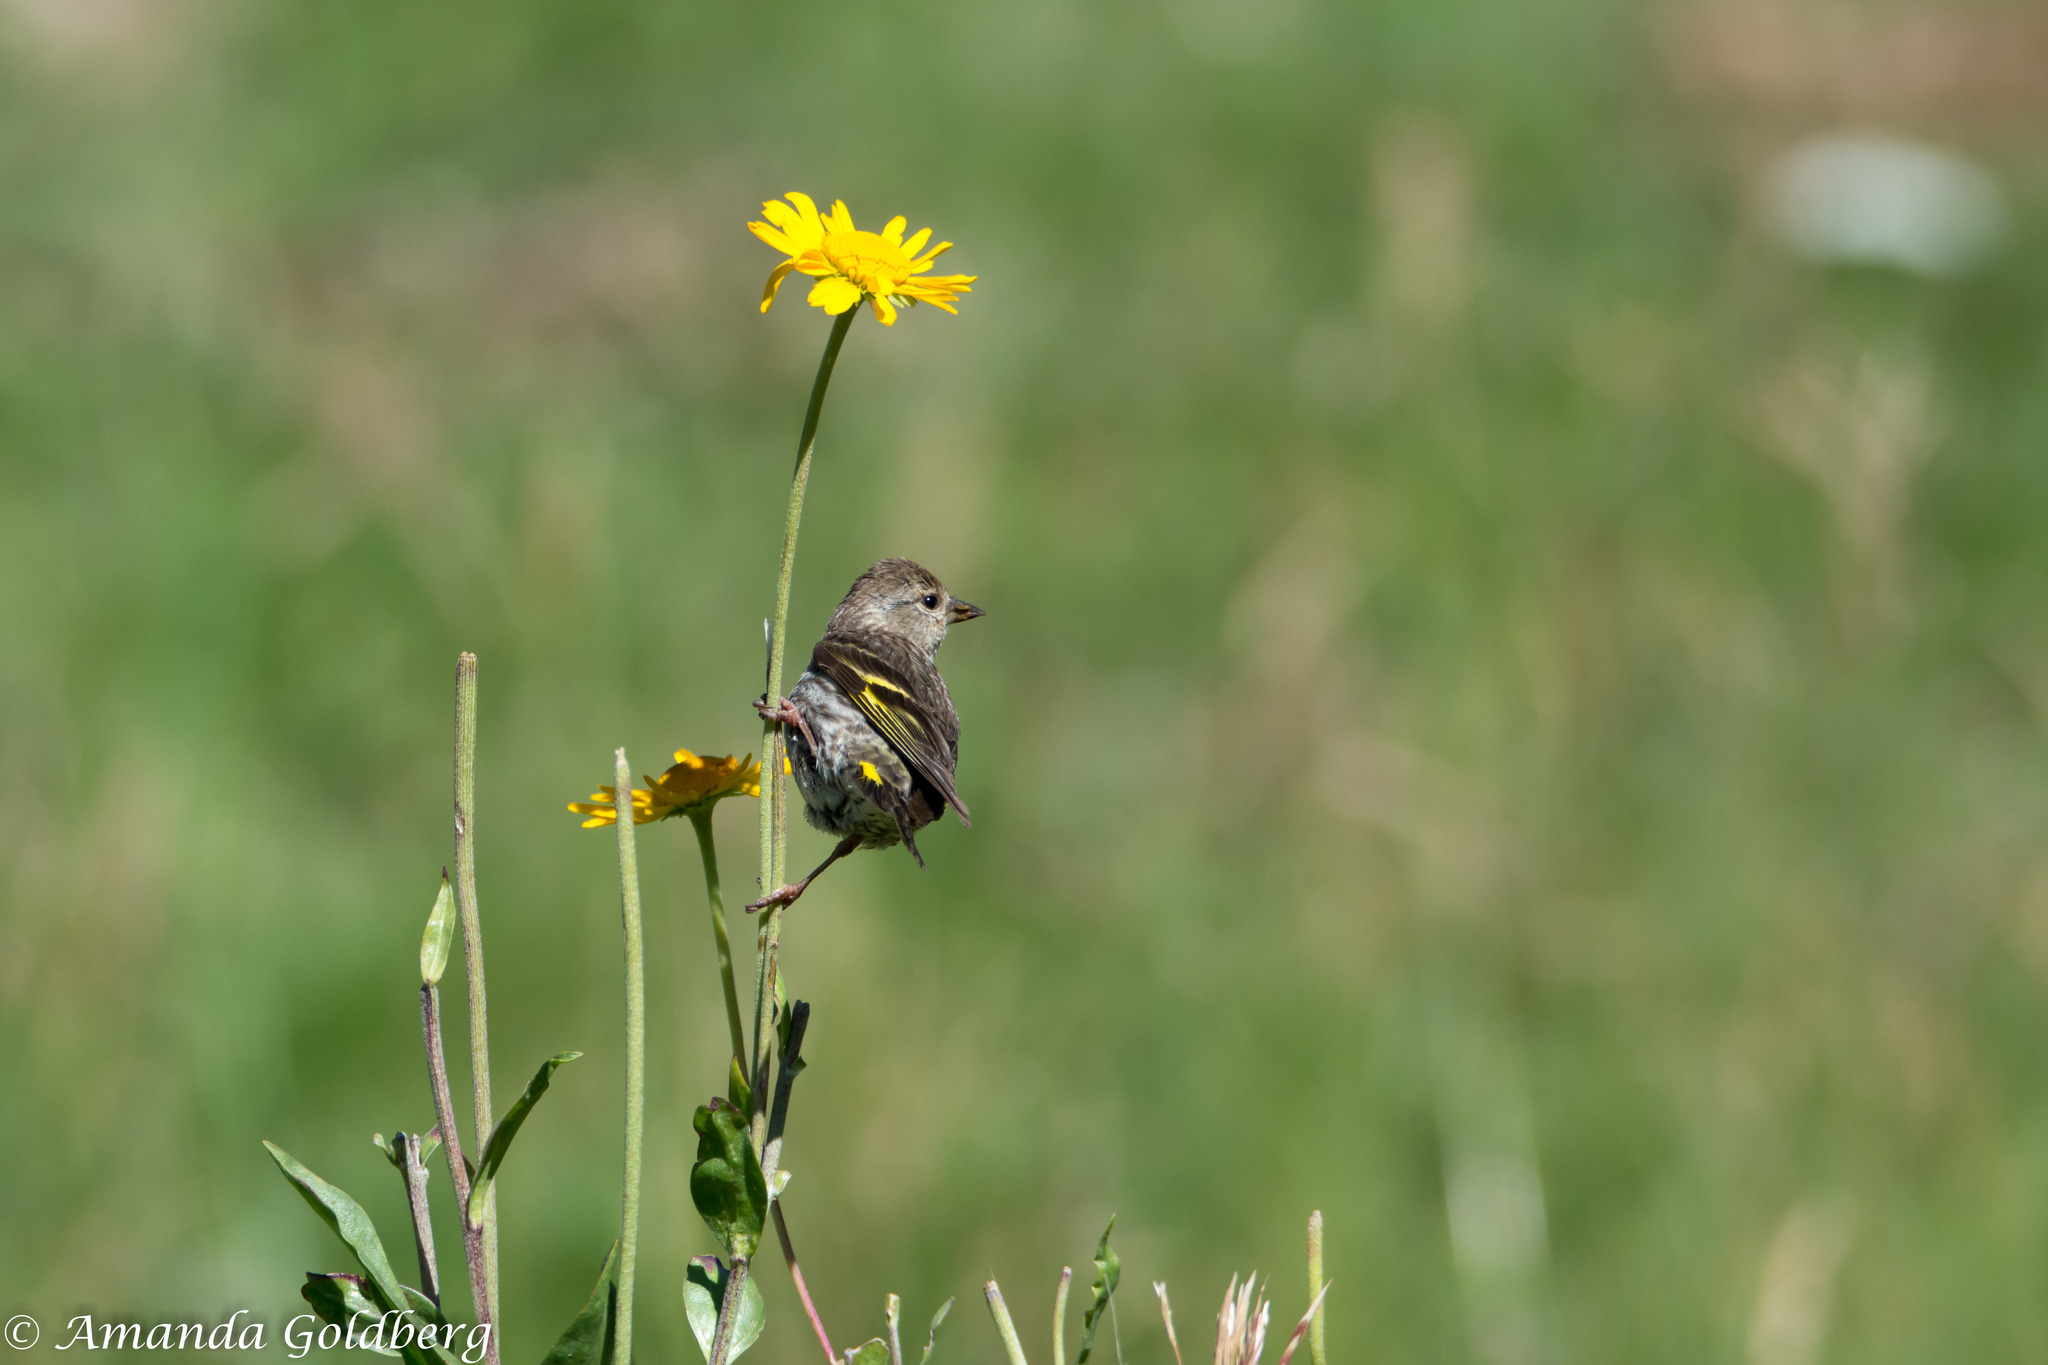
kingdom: Animalia
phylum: Chordata
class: Aves
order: Passeriformes
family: Fringillidae
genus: Spinus
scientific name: Spinus pinus
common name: Pine siskin
